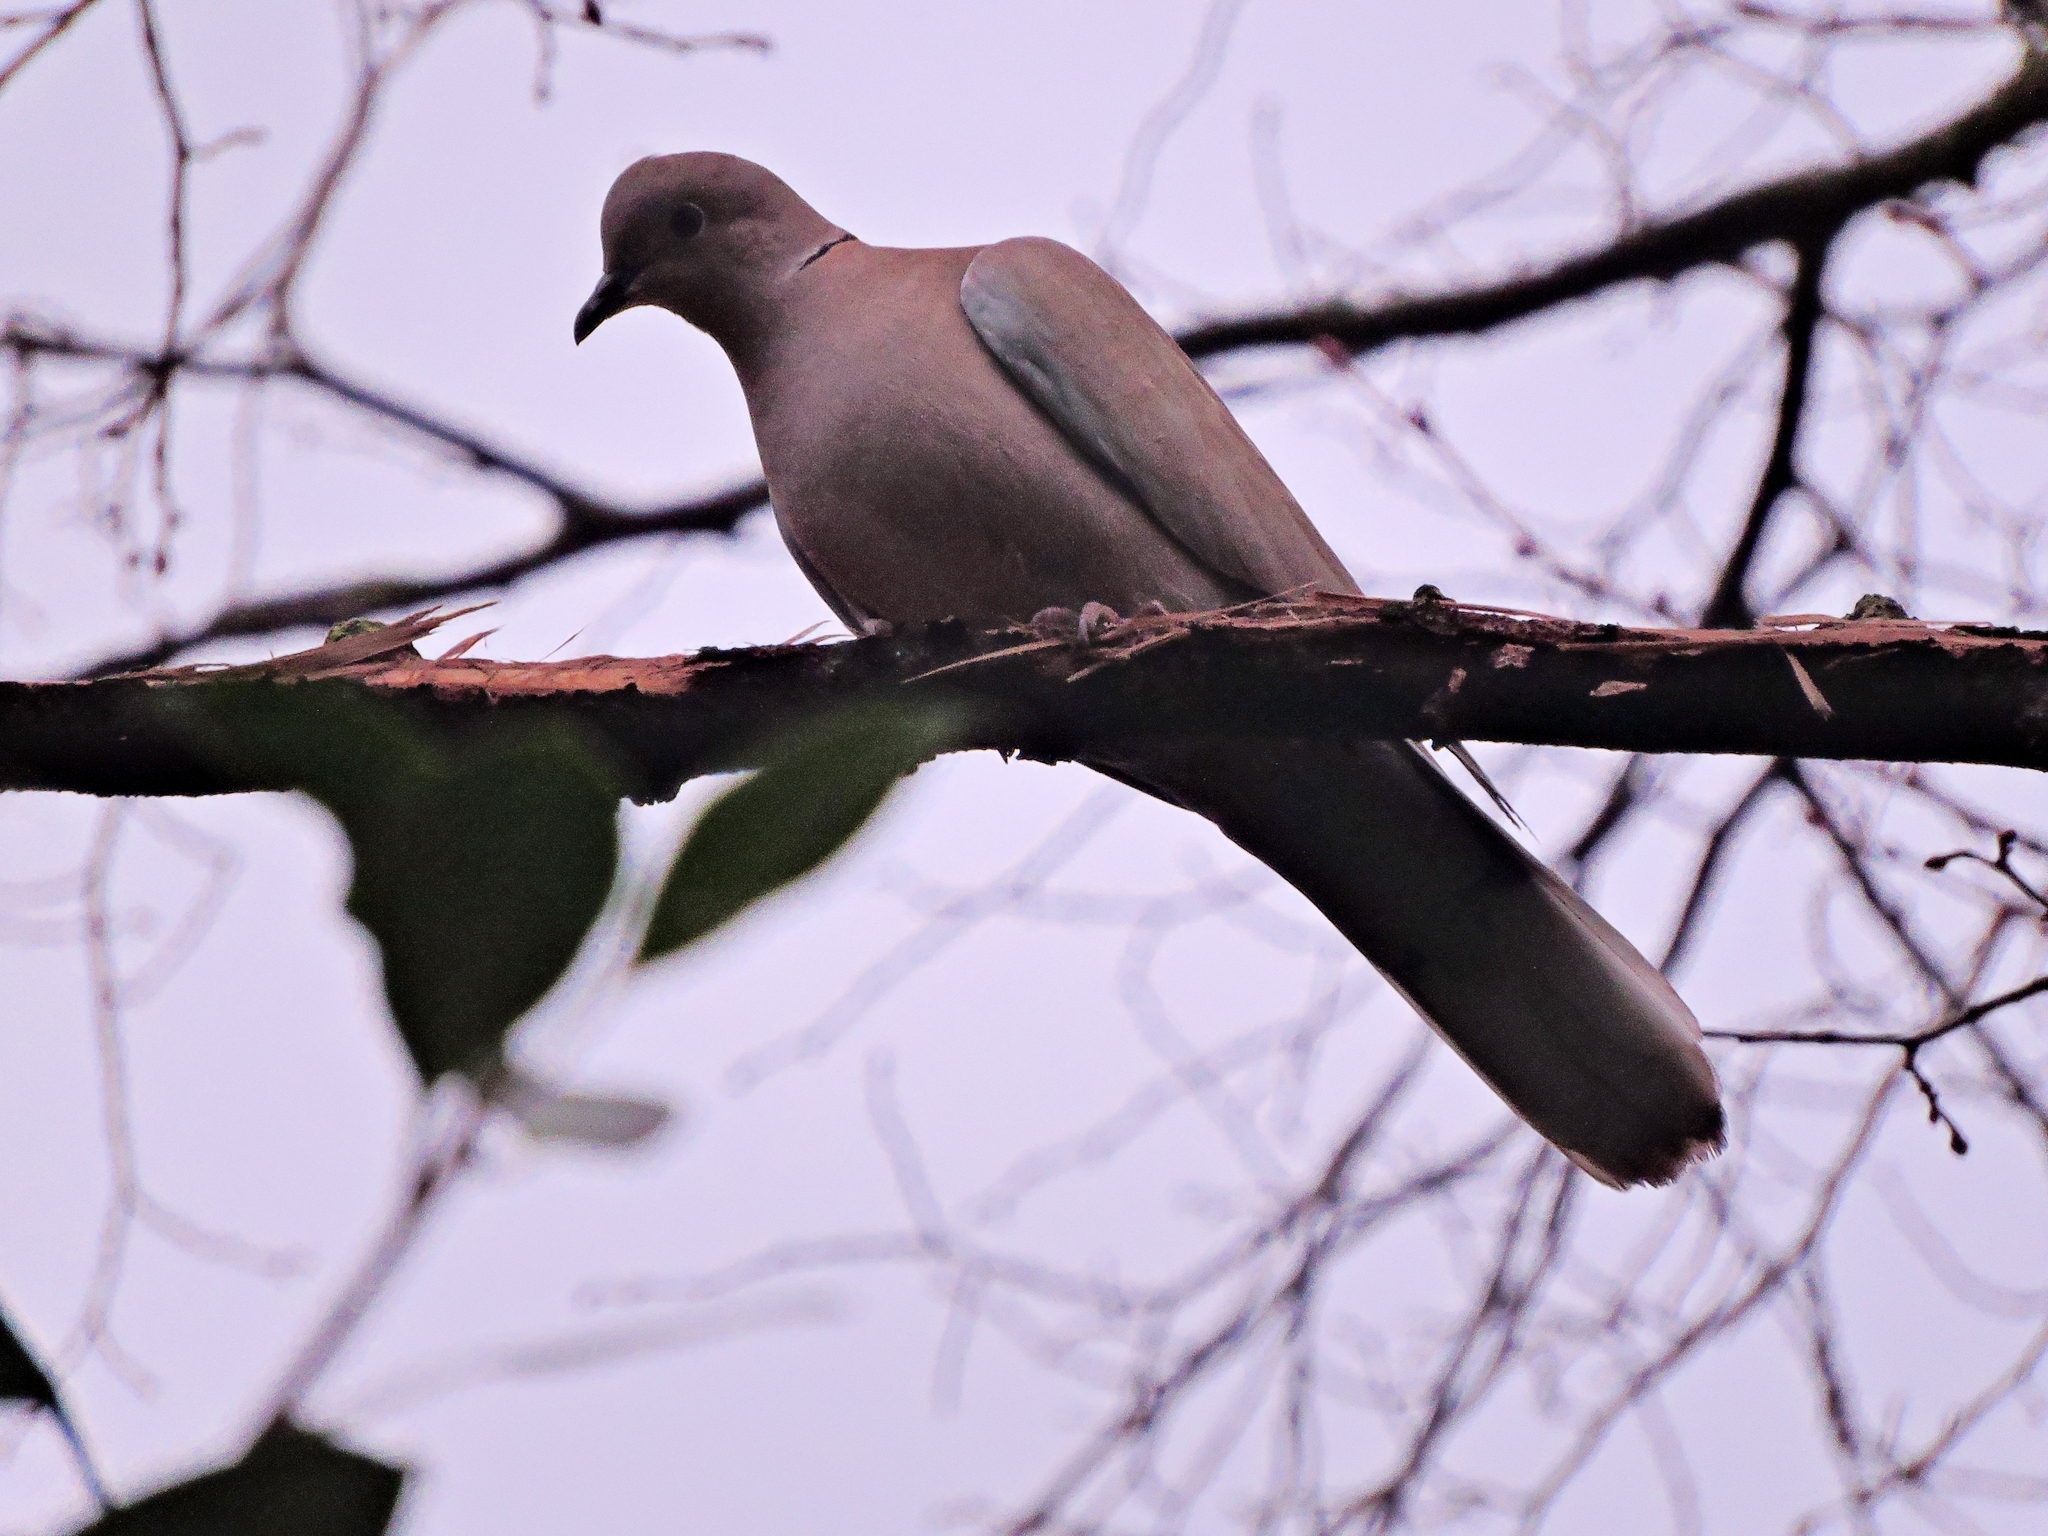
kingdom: Animalia
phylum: Chordata
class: Aves
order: Columbiformes
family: Columbidae
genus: Streptopelia
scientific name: Streptopelia decaocto
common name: Eurasian collared dove
